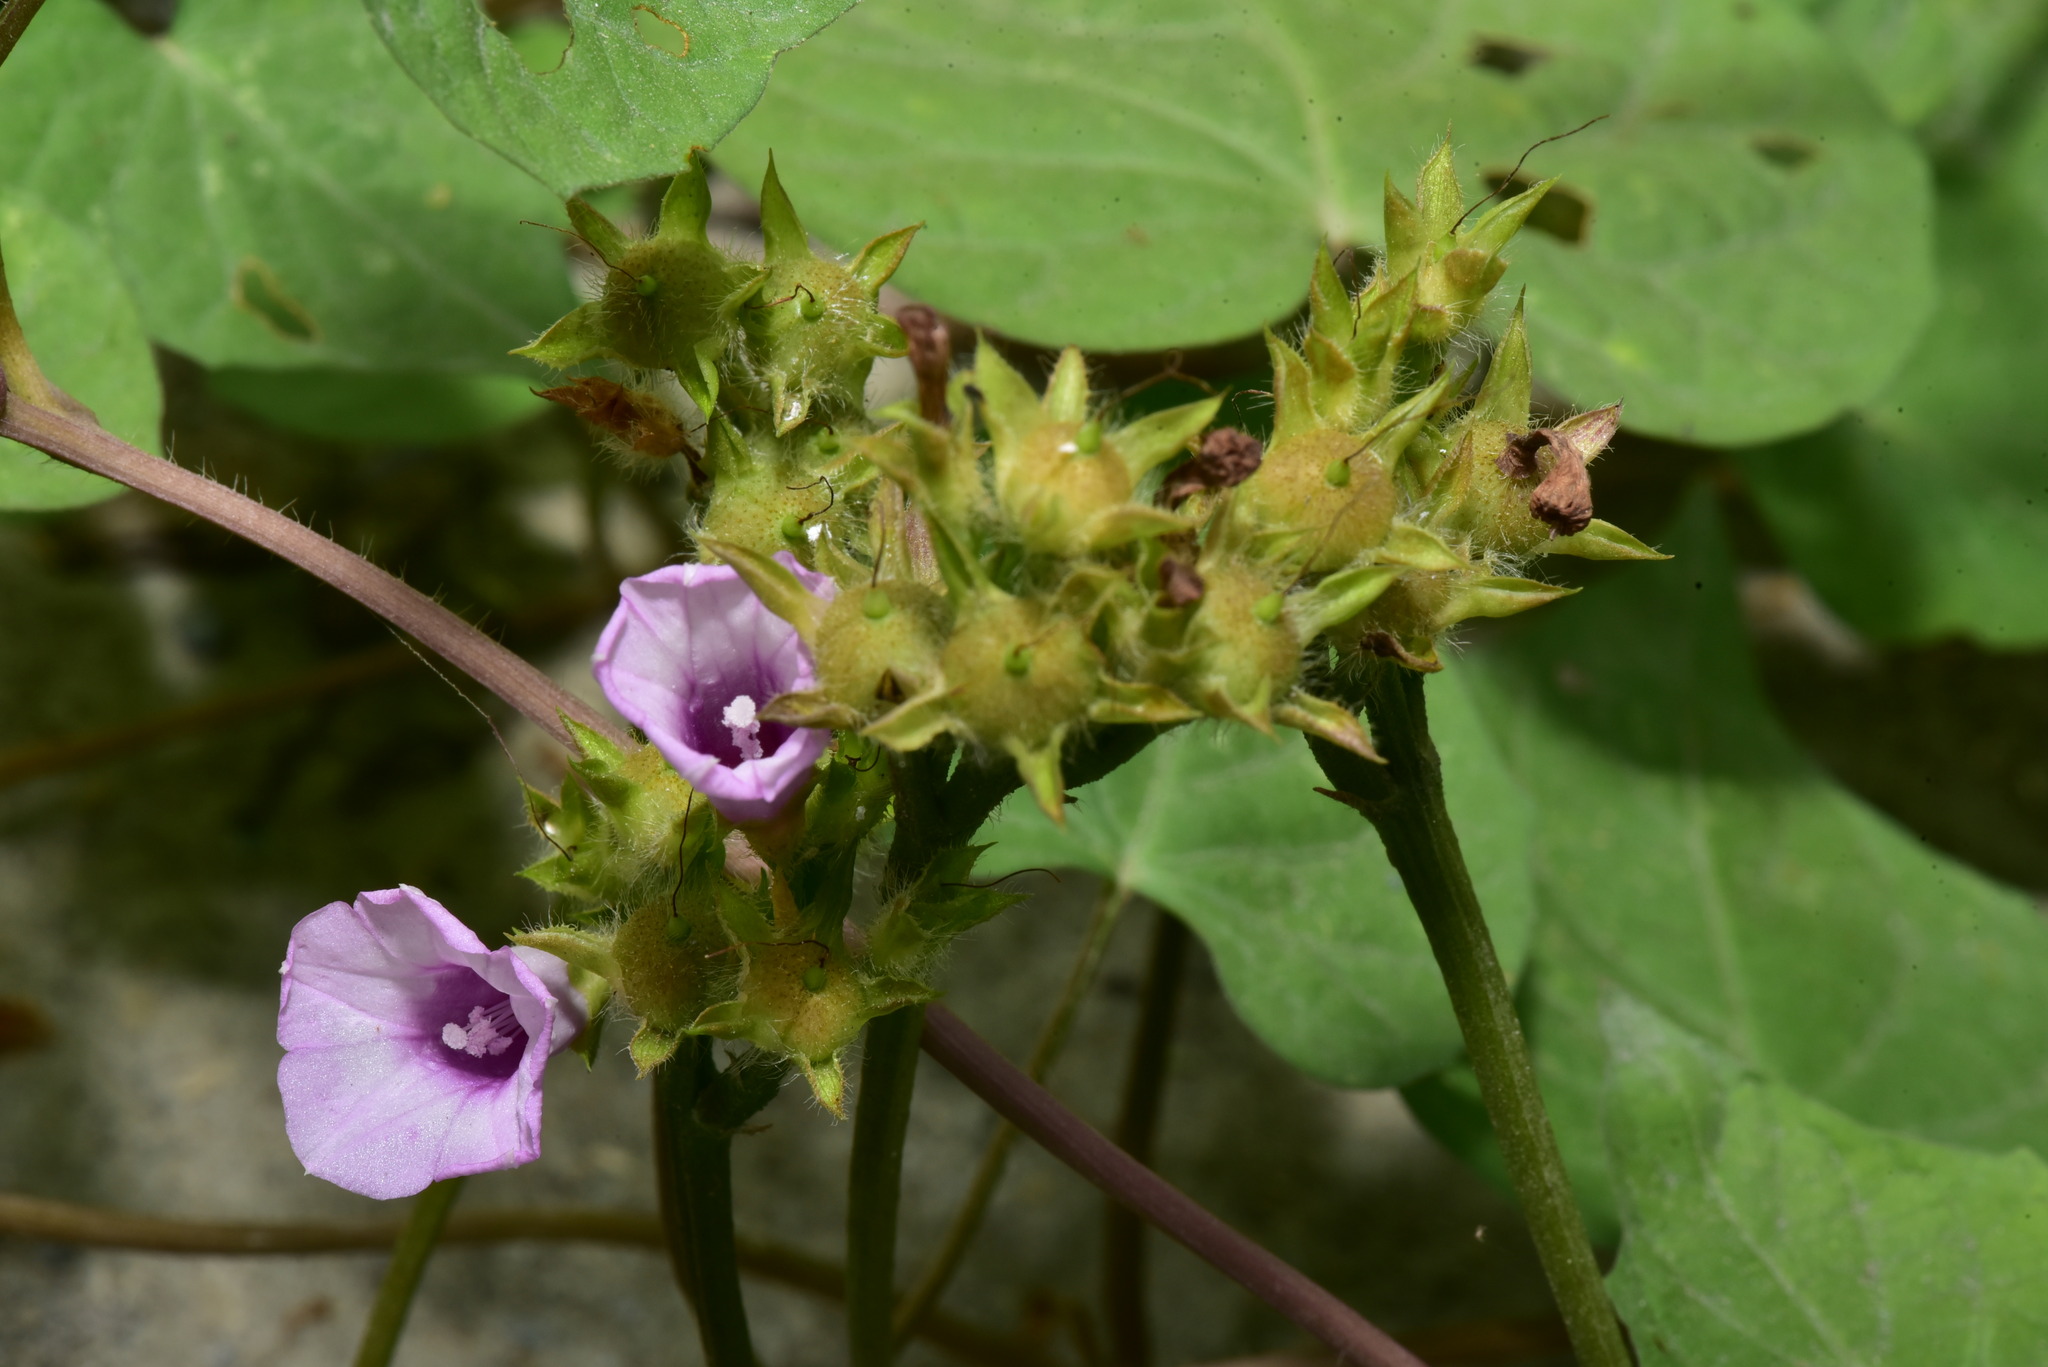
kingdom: Plantae
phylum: Tracheophyta
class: Magnoliopsida
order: Solanales
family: Convolvulaceae
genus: Ipomoea
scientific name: Ipomoea triloba
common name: Little-bell
